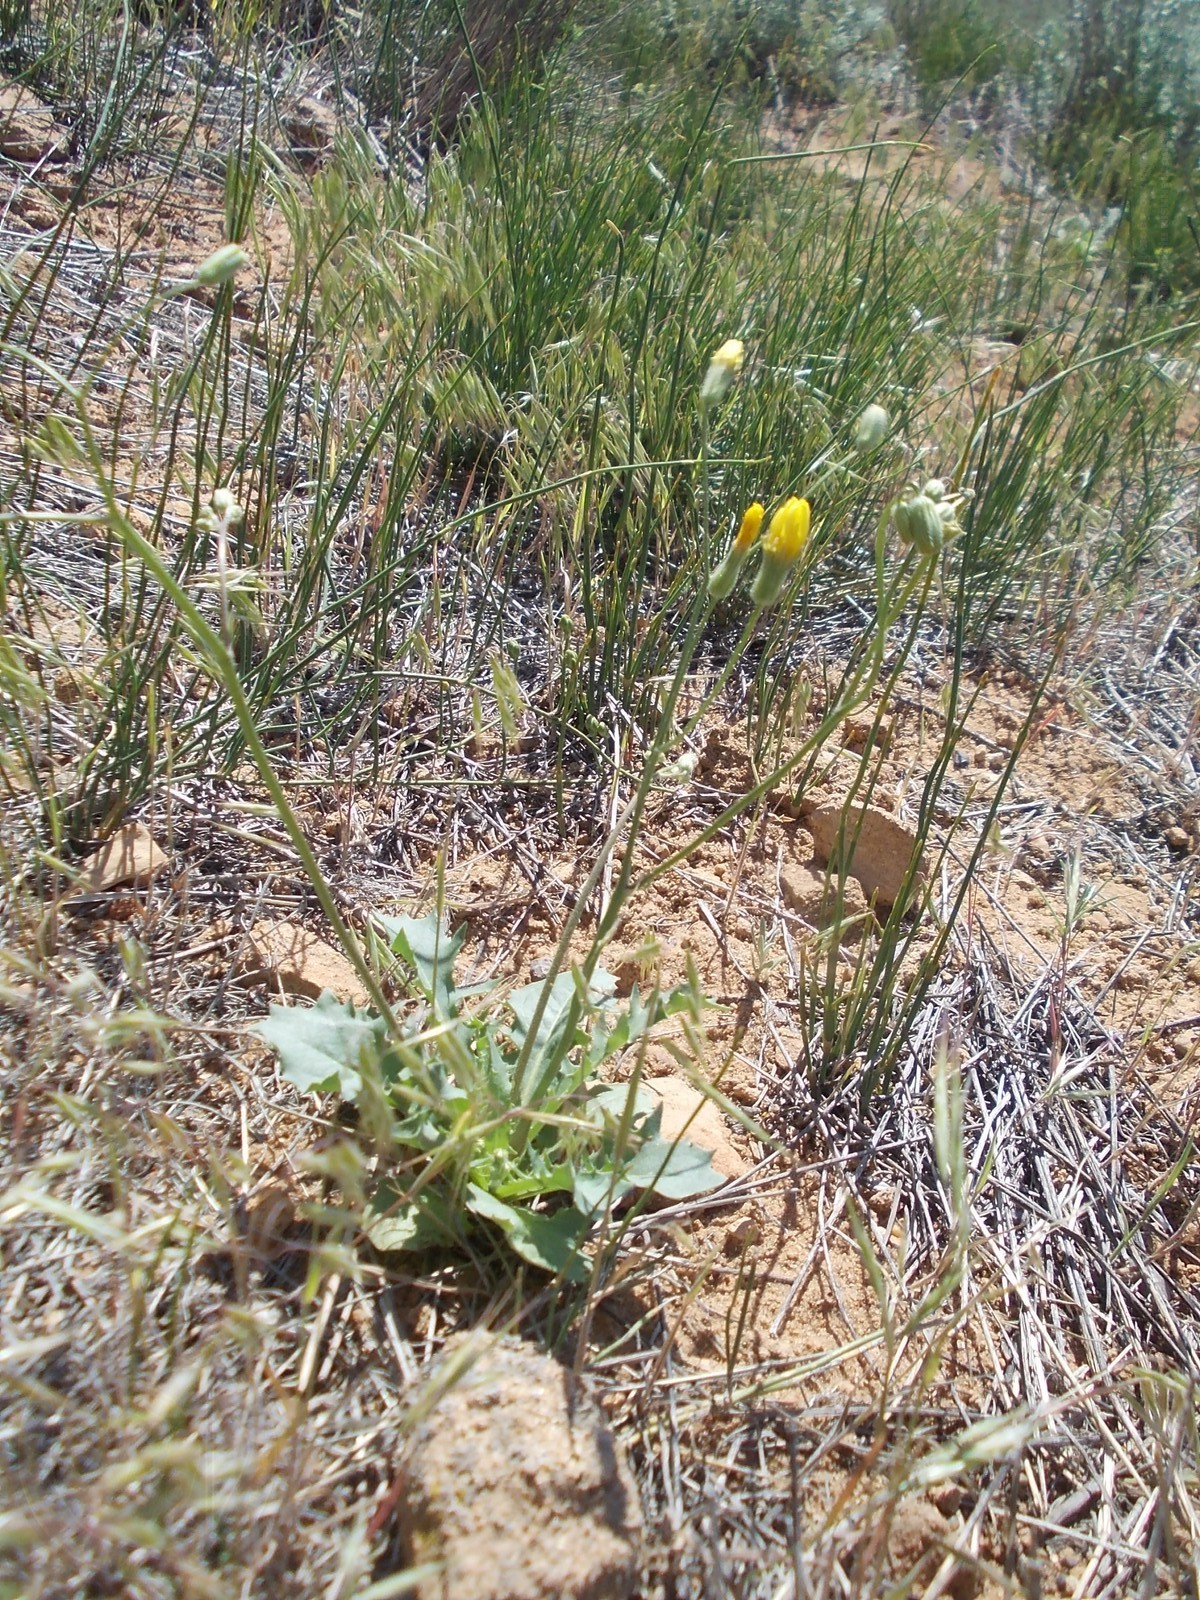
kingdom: Plantae
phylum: Tracheophyta
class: Magnoliopsida
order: Asterales
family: Asteraceae
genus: Crepis
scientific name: Crepis sancta
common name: Hawk's-beard
